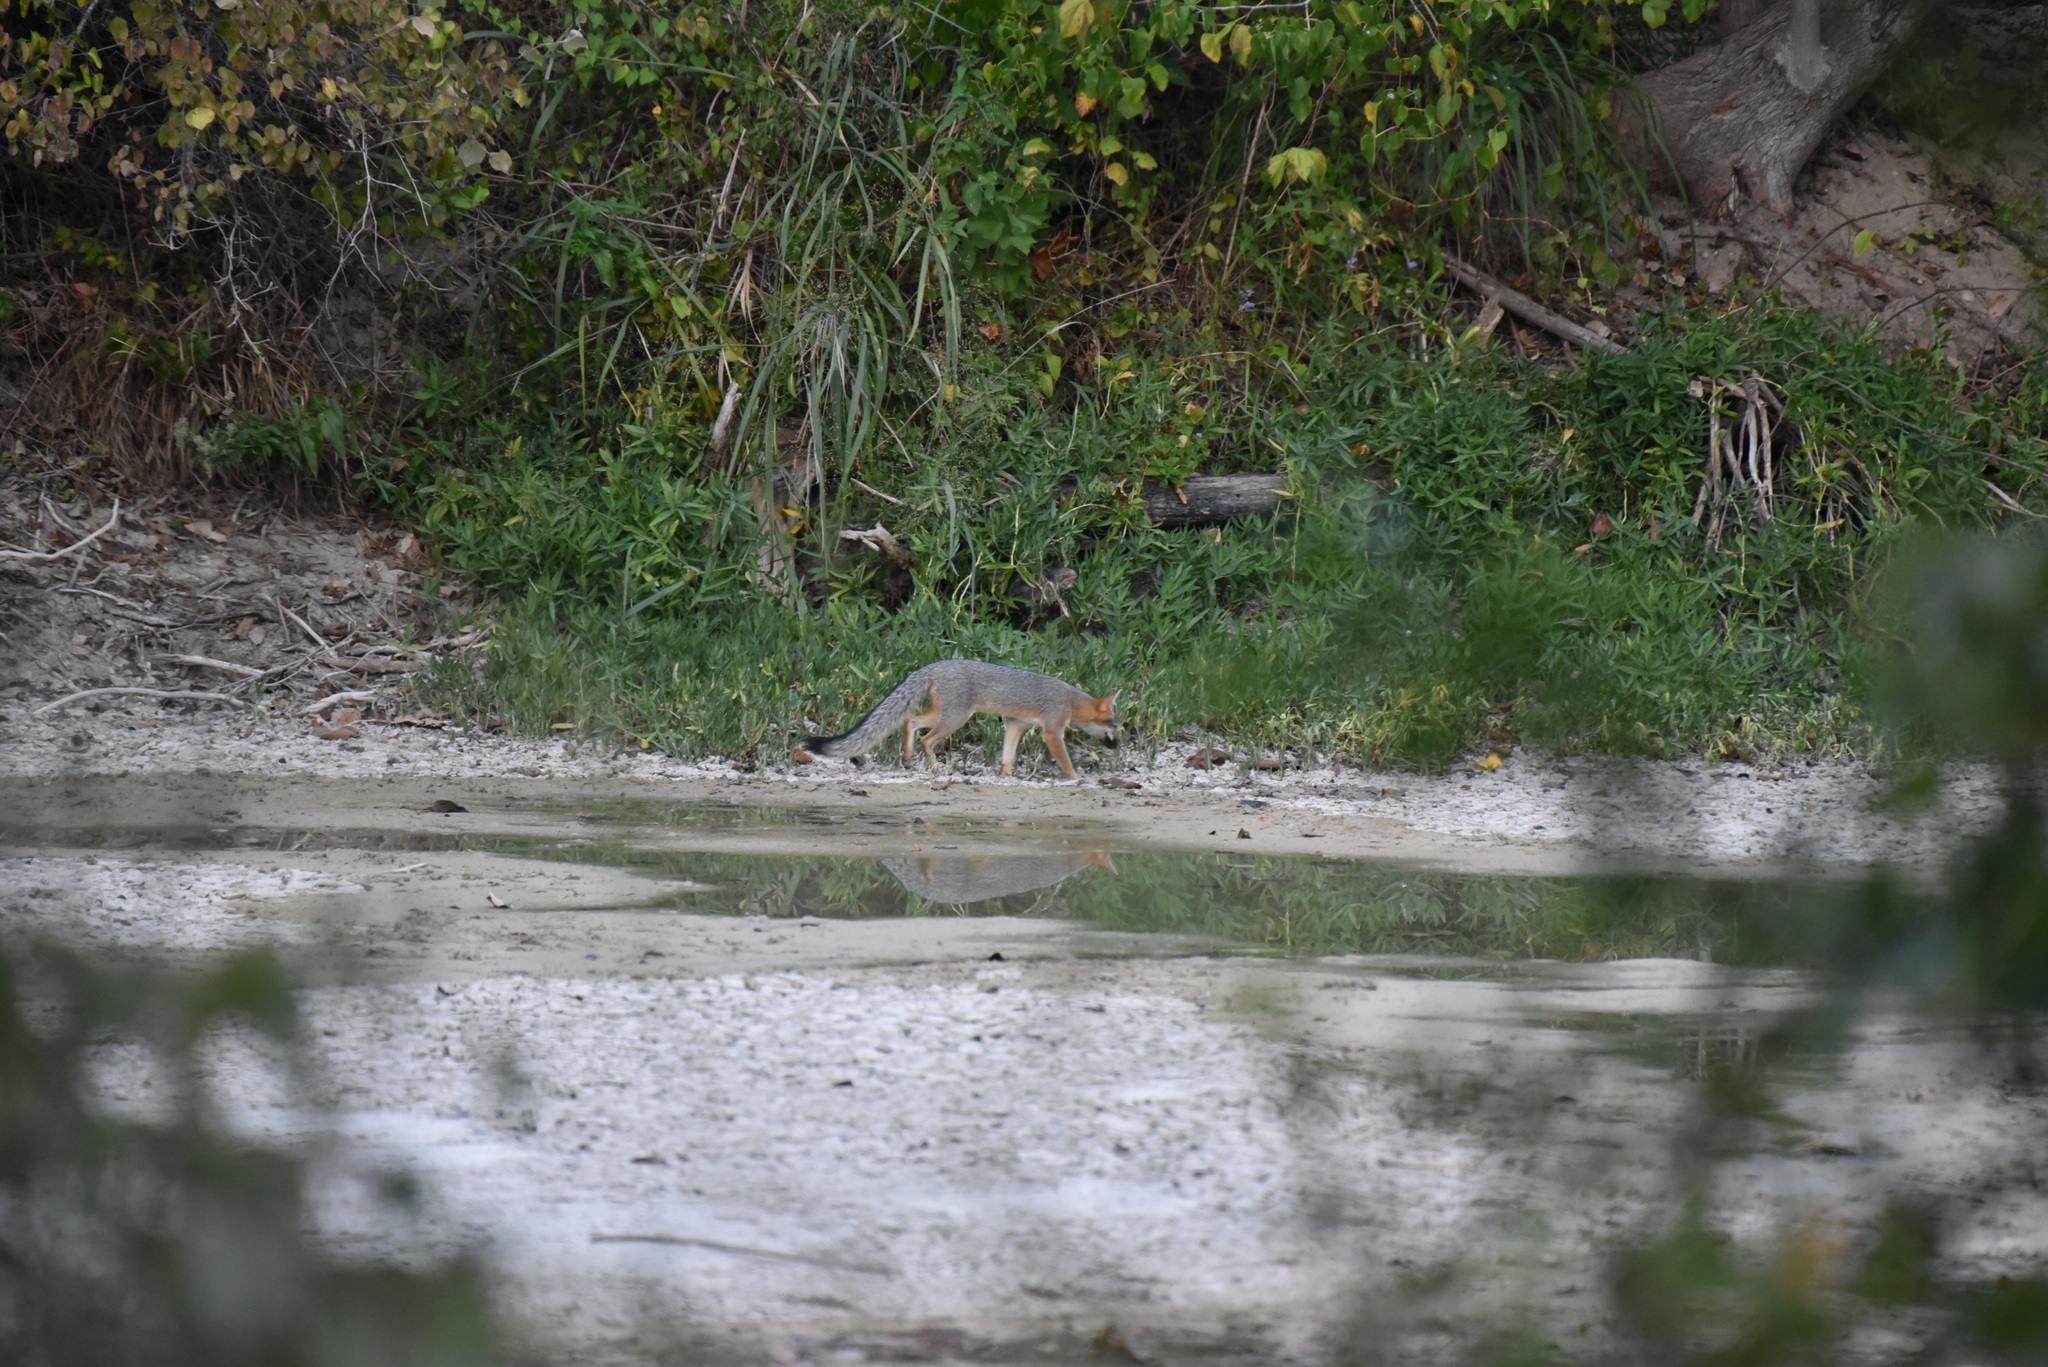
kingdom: Animalia
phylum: Chordata
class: Mammalia
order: Carnivora
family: Canidae
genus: Urocyon
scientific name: Urocyon cinereoargenteus
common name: Gray fox
